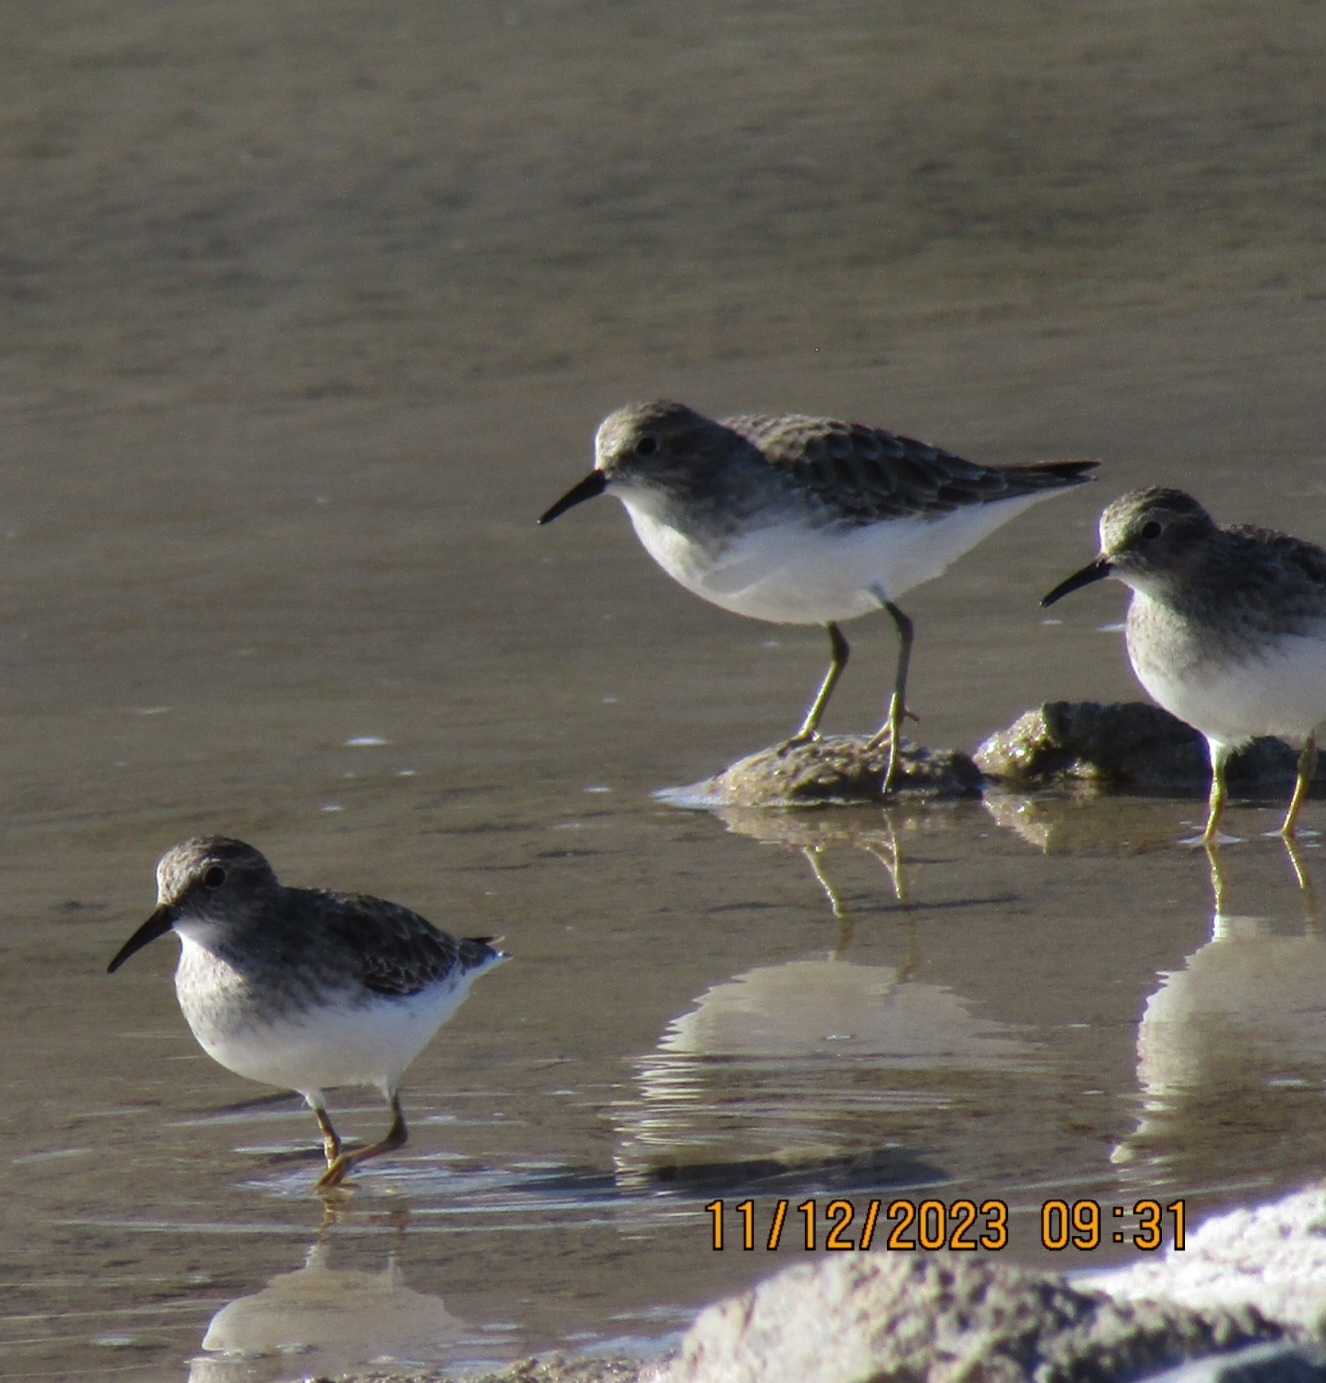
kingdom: Animalia
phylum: Chordata
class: Aves
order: Charadriiformes
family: Scolopacidae
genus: Calidris
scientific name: Calidris minutilla
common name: Least sandpiper
